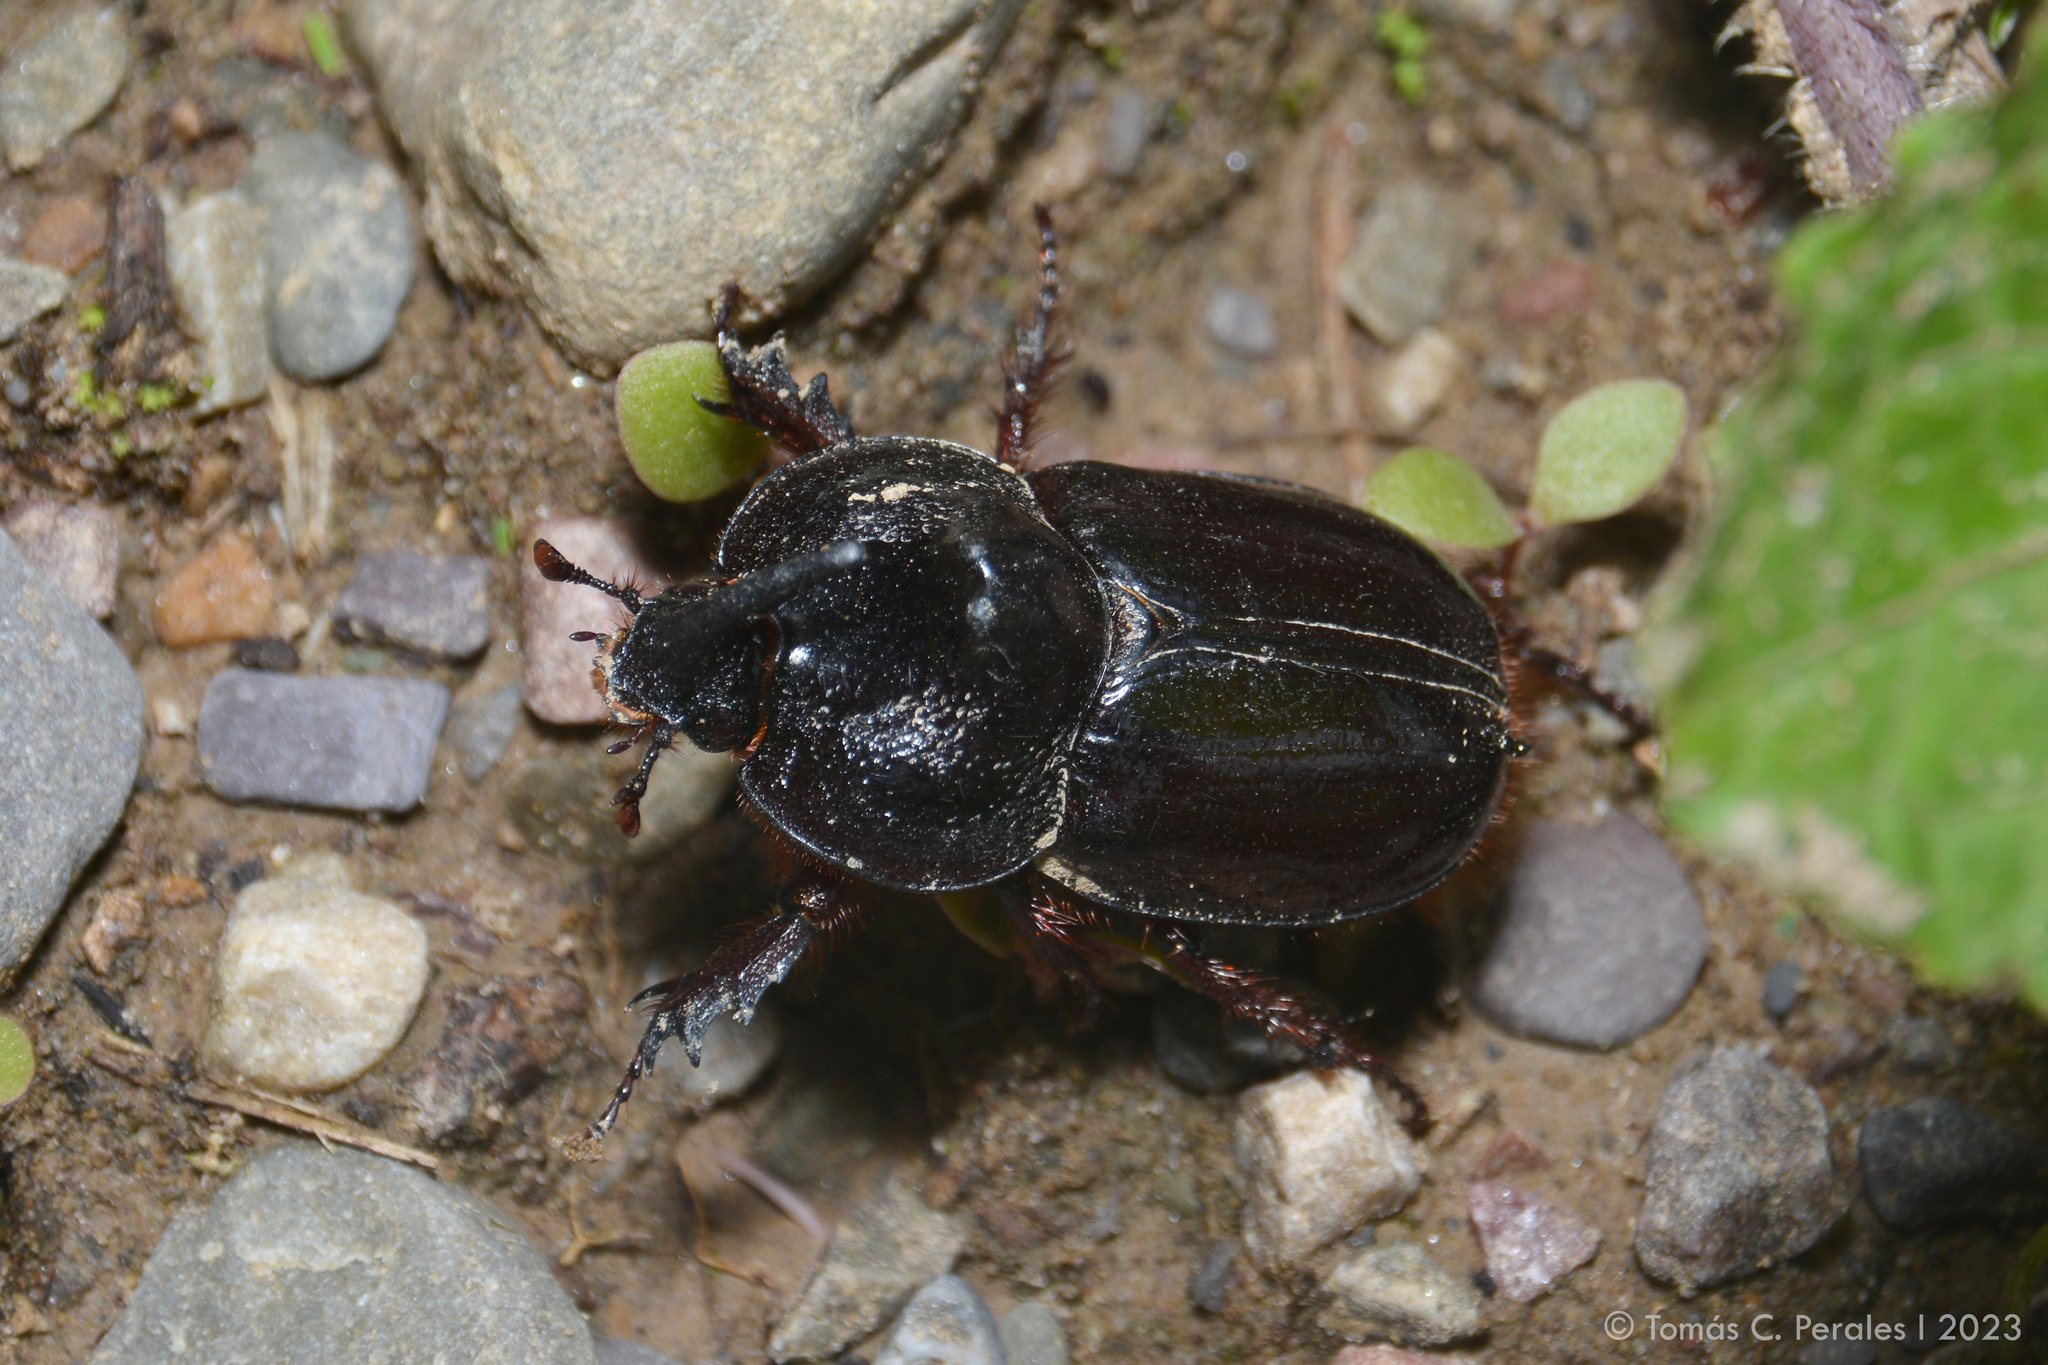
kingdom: Animalia
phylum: Arthropoda
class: Insecta
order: Coleoptera
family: Scarabaeidae
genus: Enema
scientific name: Enema pan
